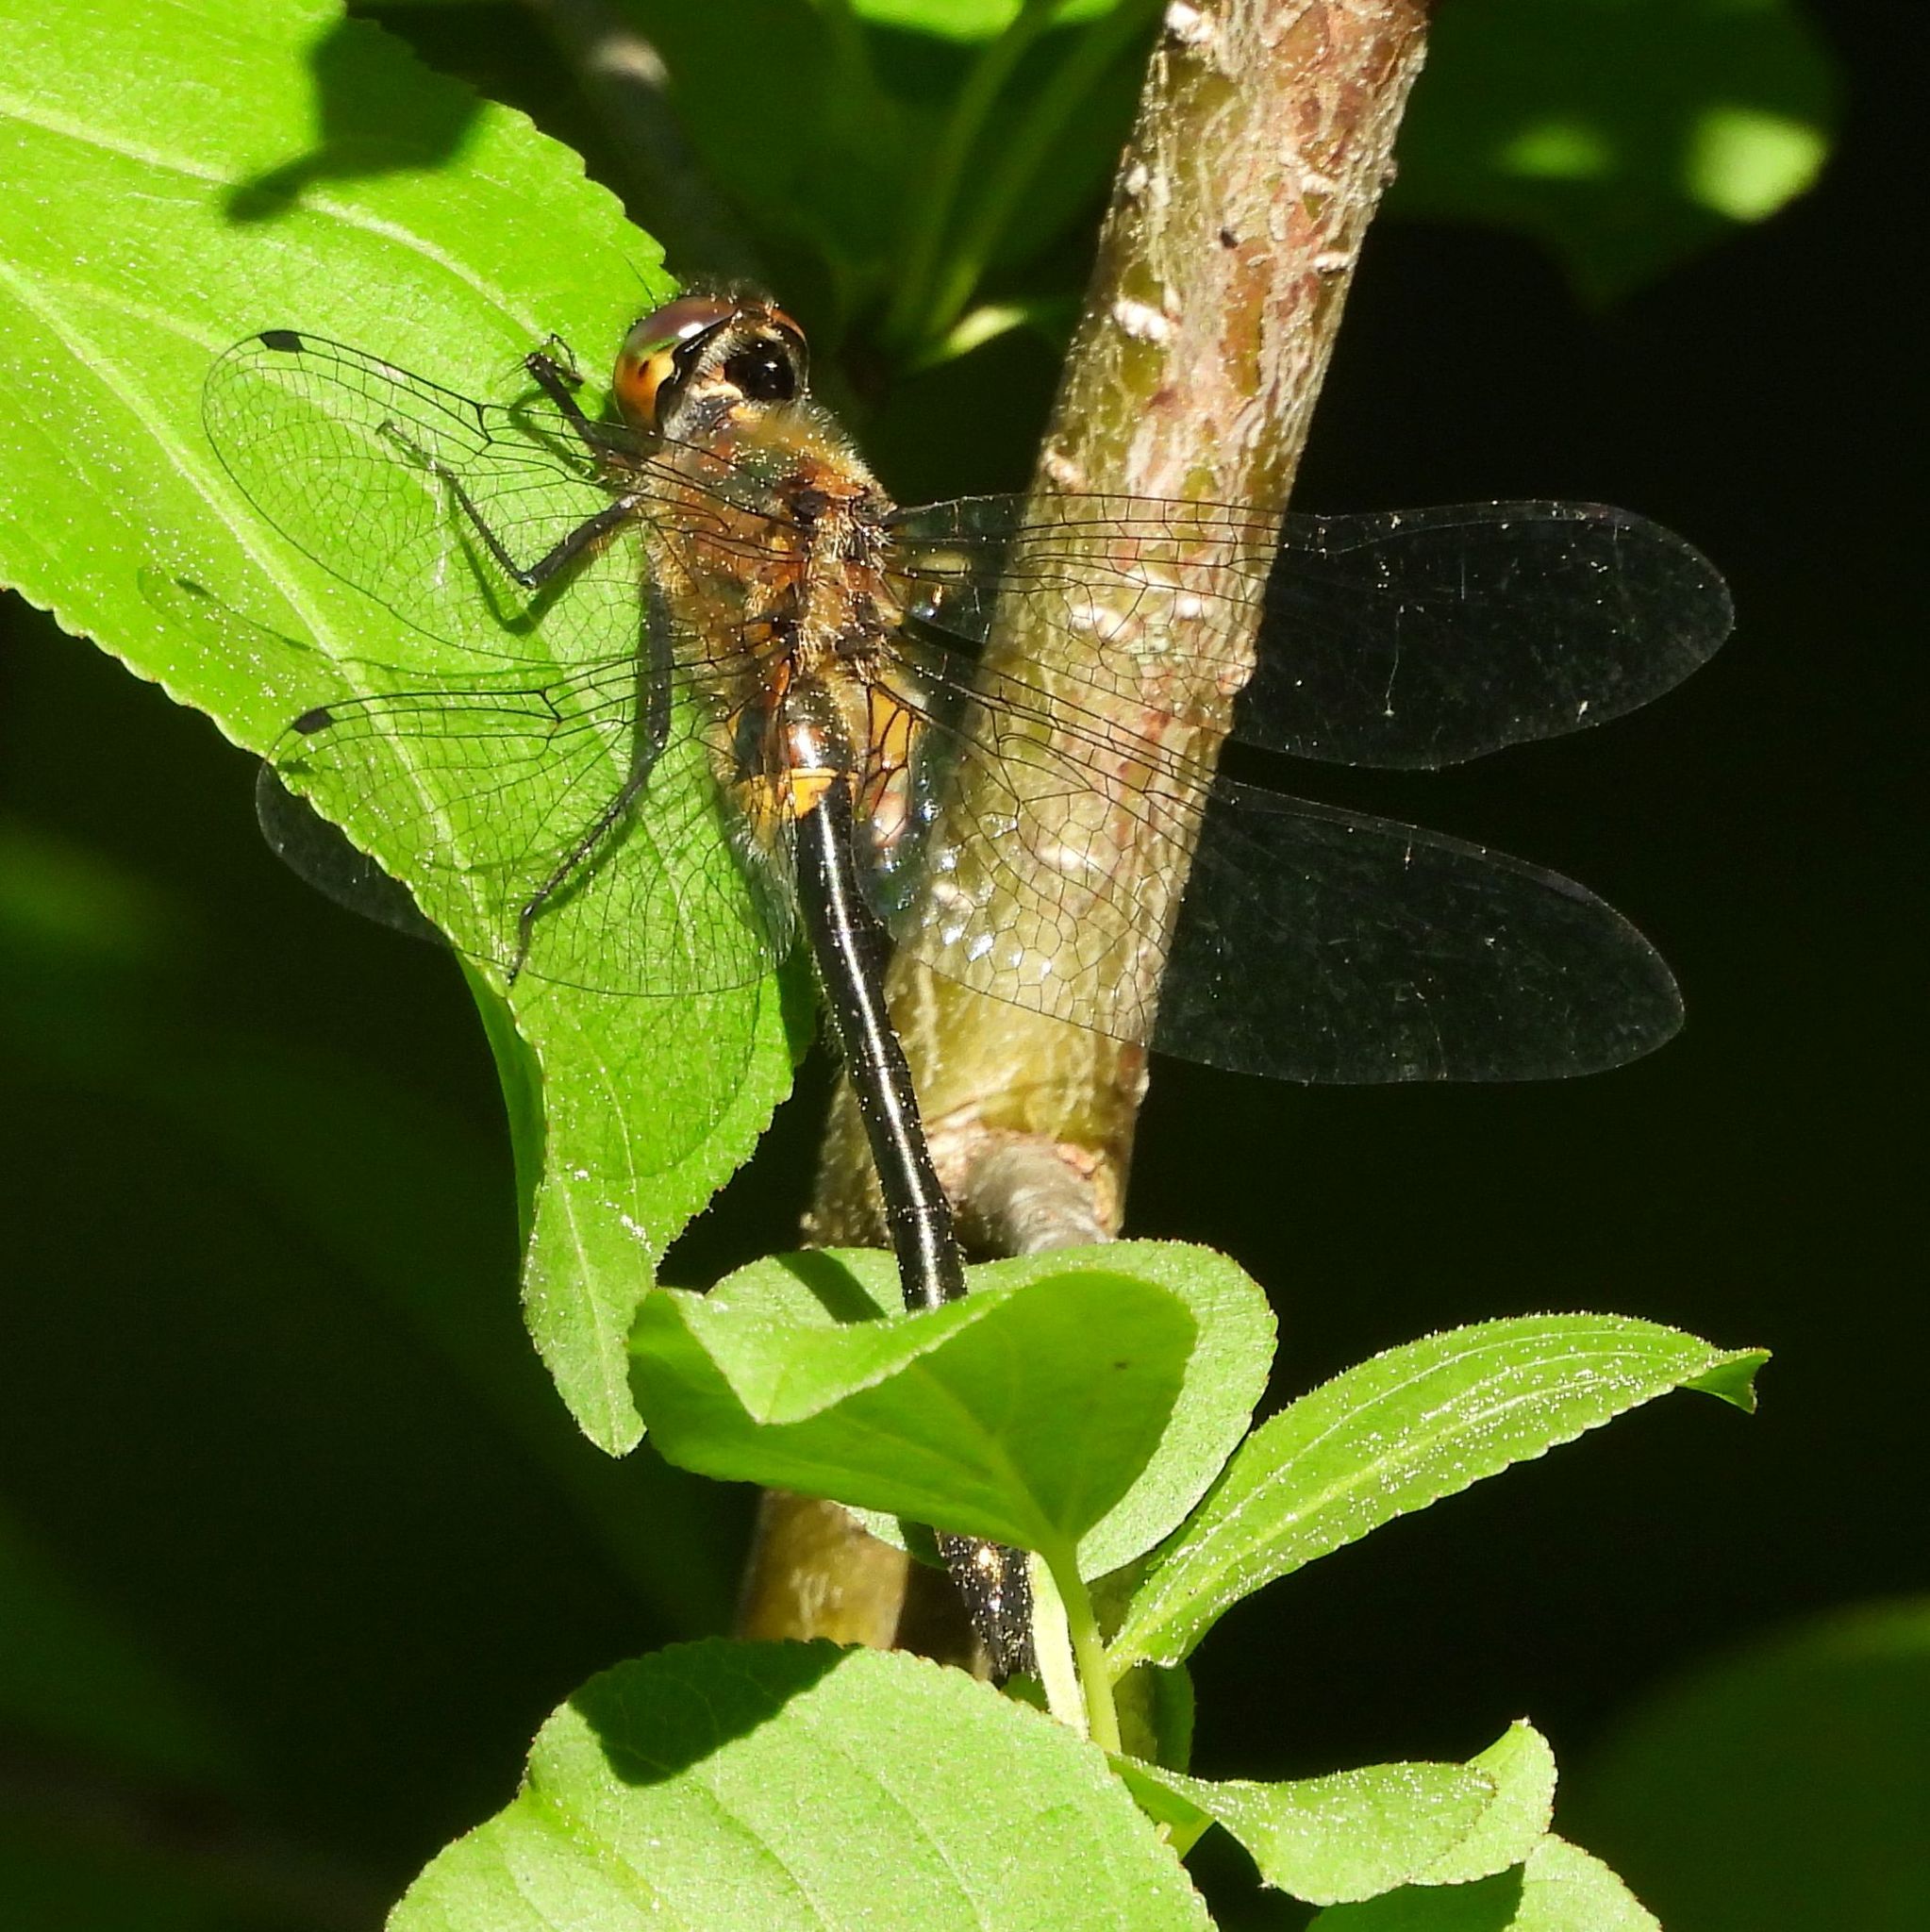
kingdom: Animalia
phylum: Arthropoda
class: Insecta
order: Odonata
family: Corduliidae
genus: Dorocordulia
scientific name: Dorocordulia libera
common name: Racket-tailed emerald
